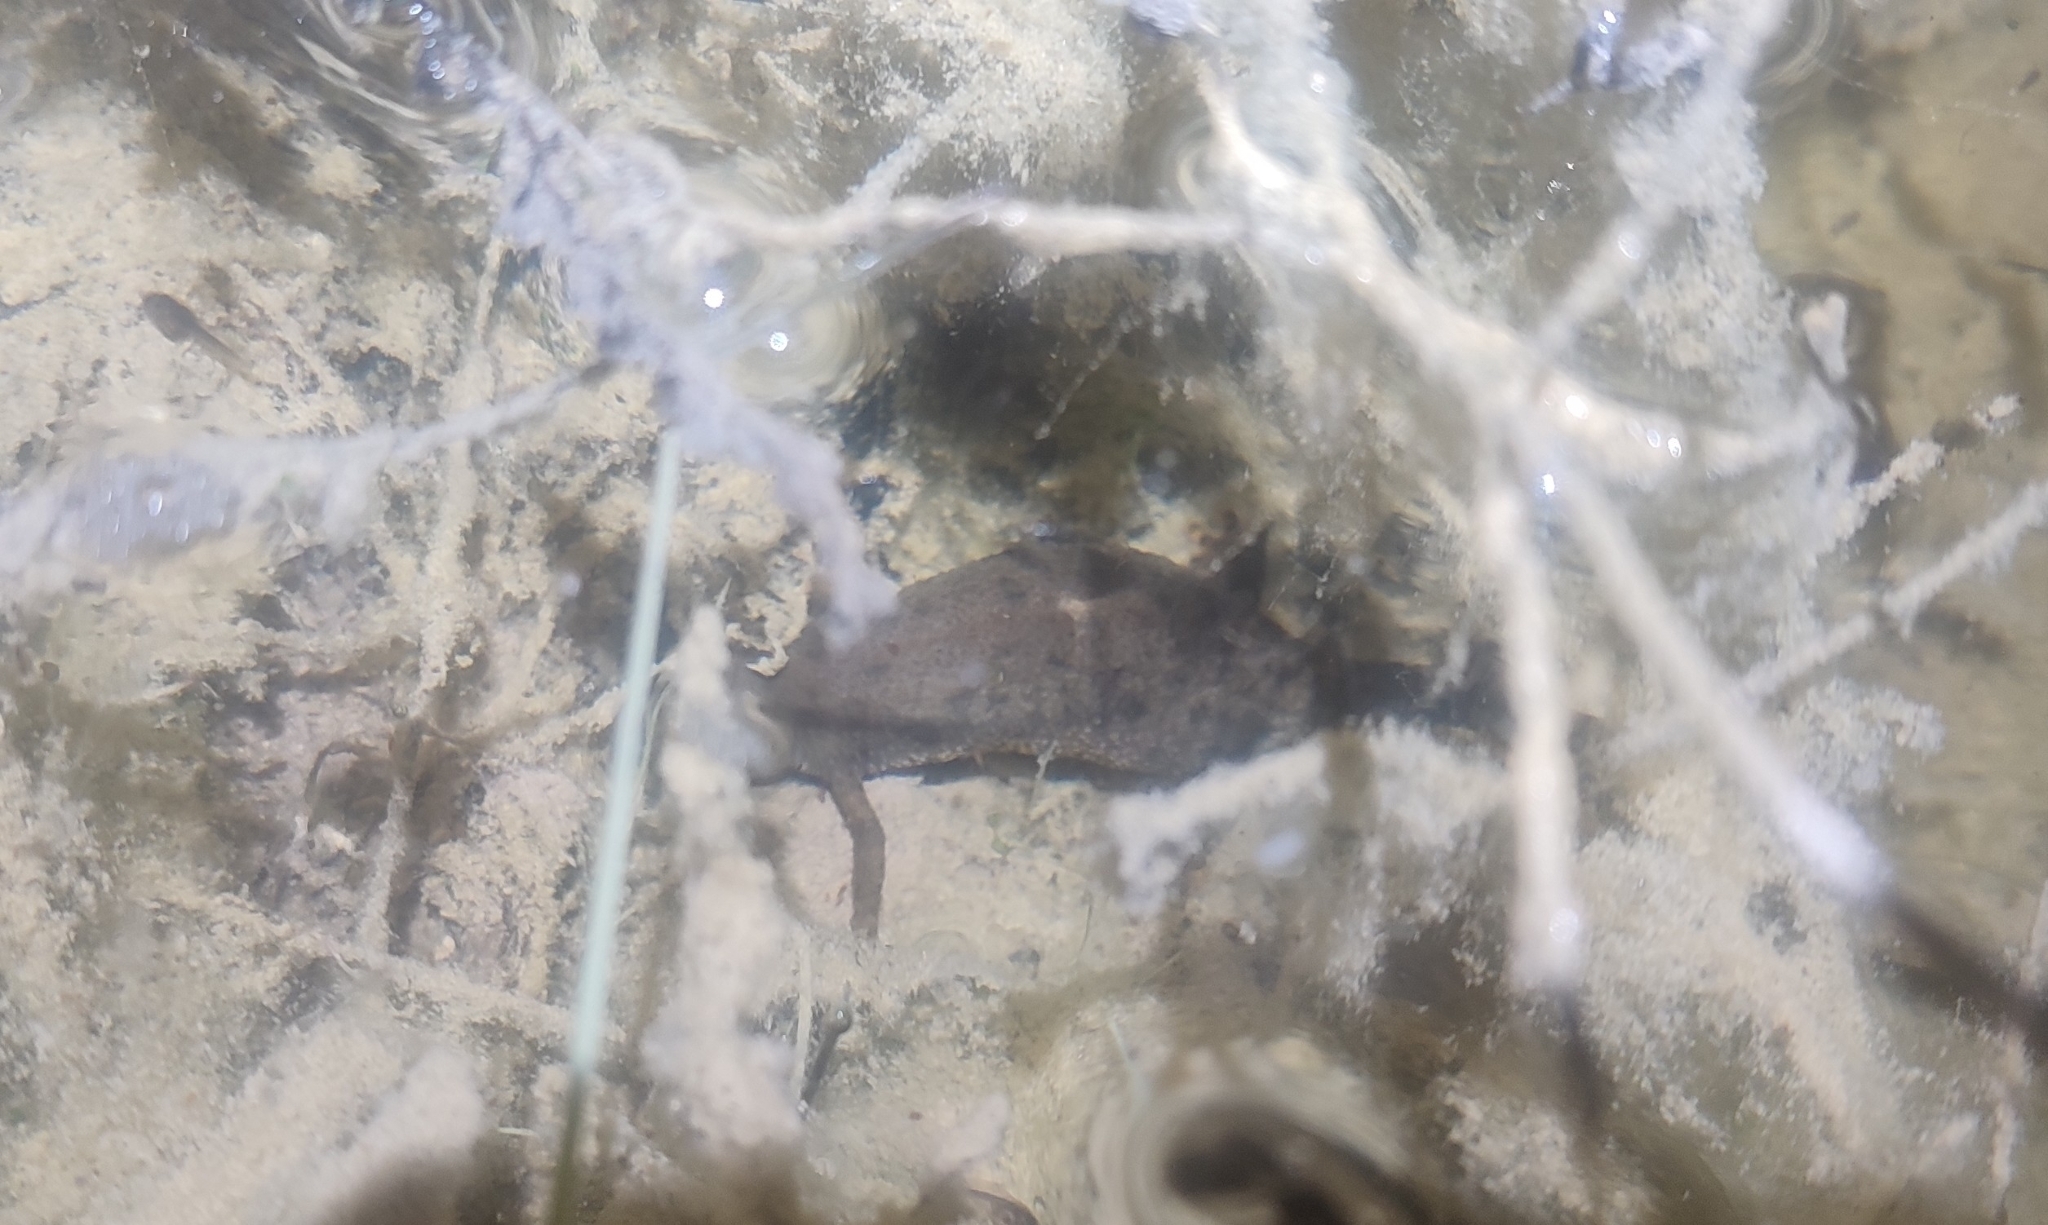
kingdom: Animalia
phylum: Chordata
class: Amphibia
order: Caudata
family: Salamandridae
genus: Triturus
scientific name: Triturus cristatus
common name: Crested newt
